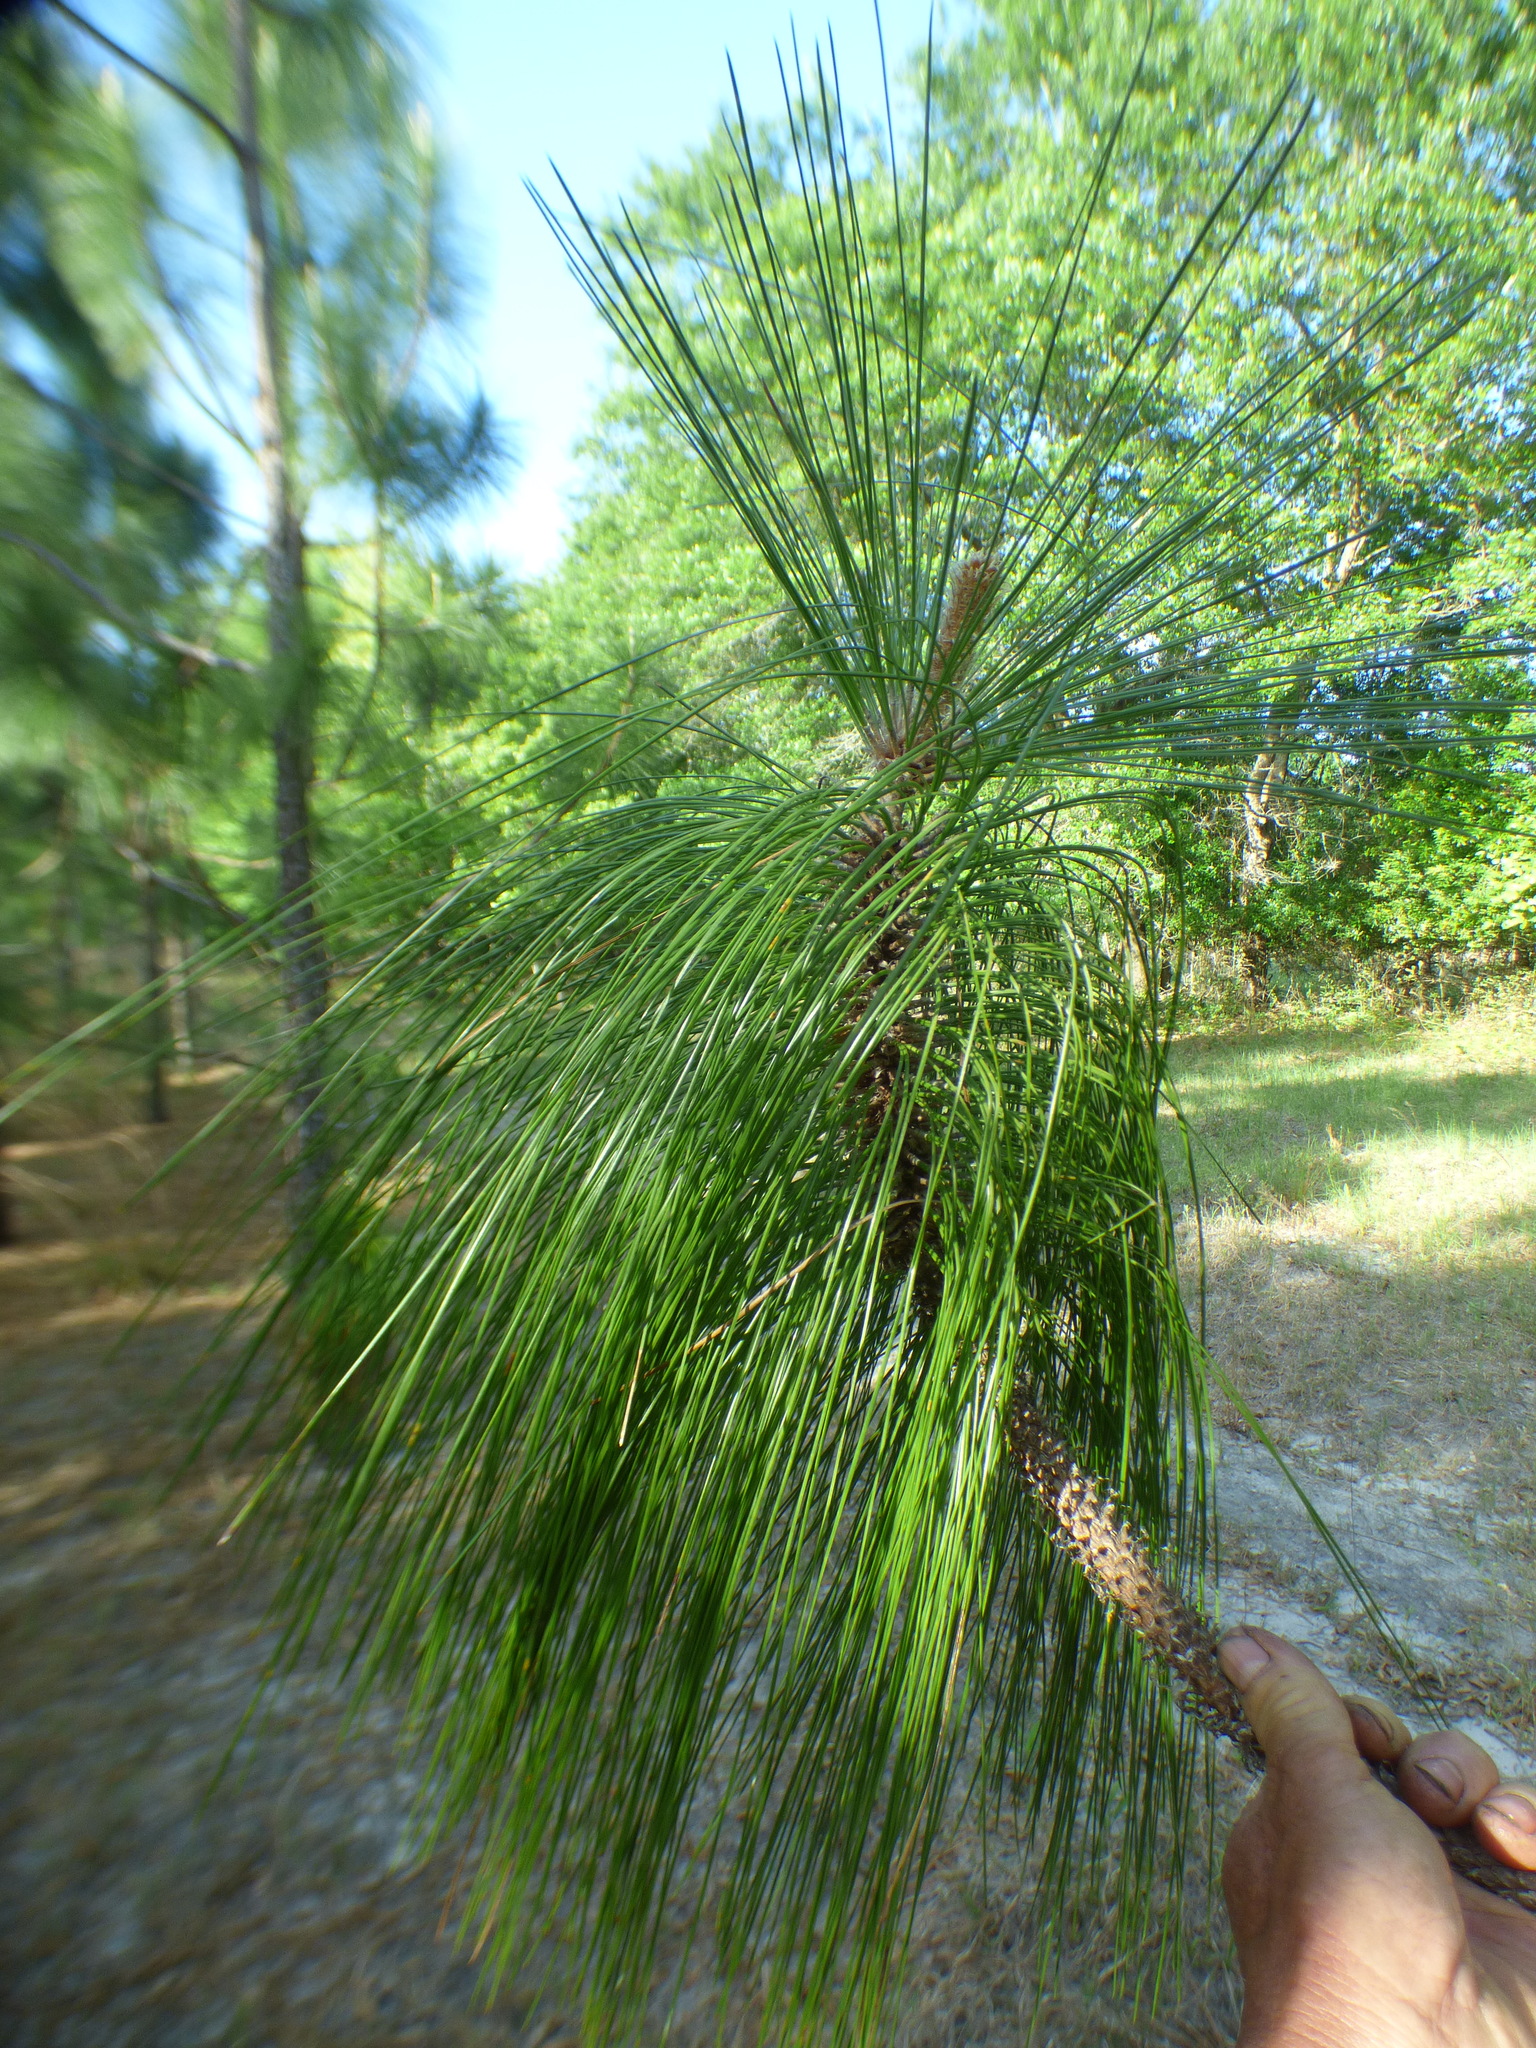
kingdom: Plantae
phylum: Tracheophyta
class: Pinopsida
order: Pinales
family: Pinaceae
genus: Pinus
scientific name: Pinus palustris
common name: Longleaf pine
